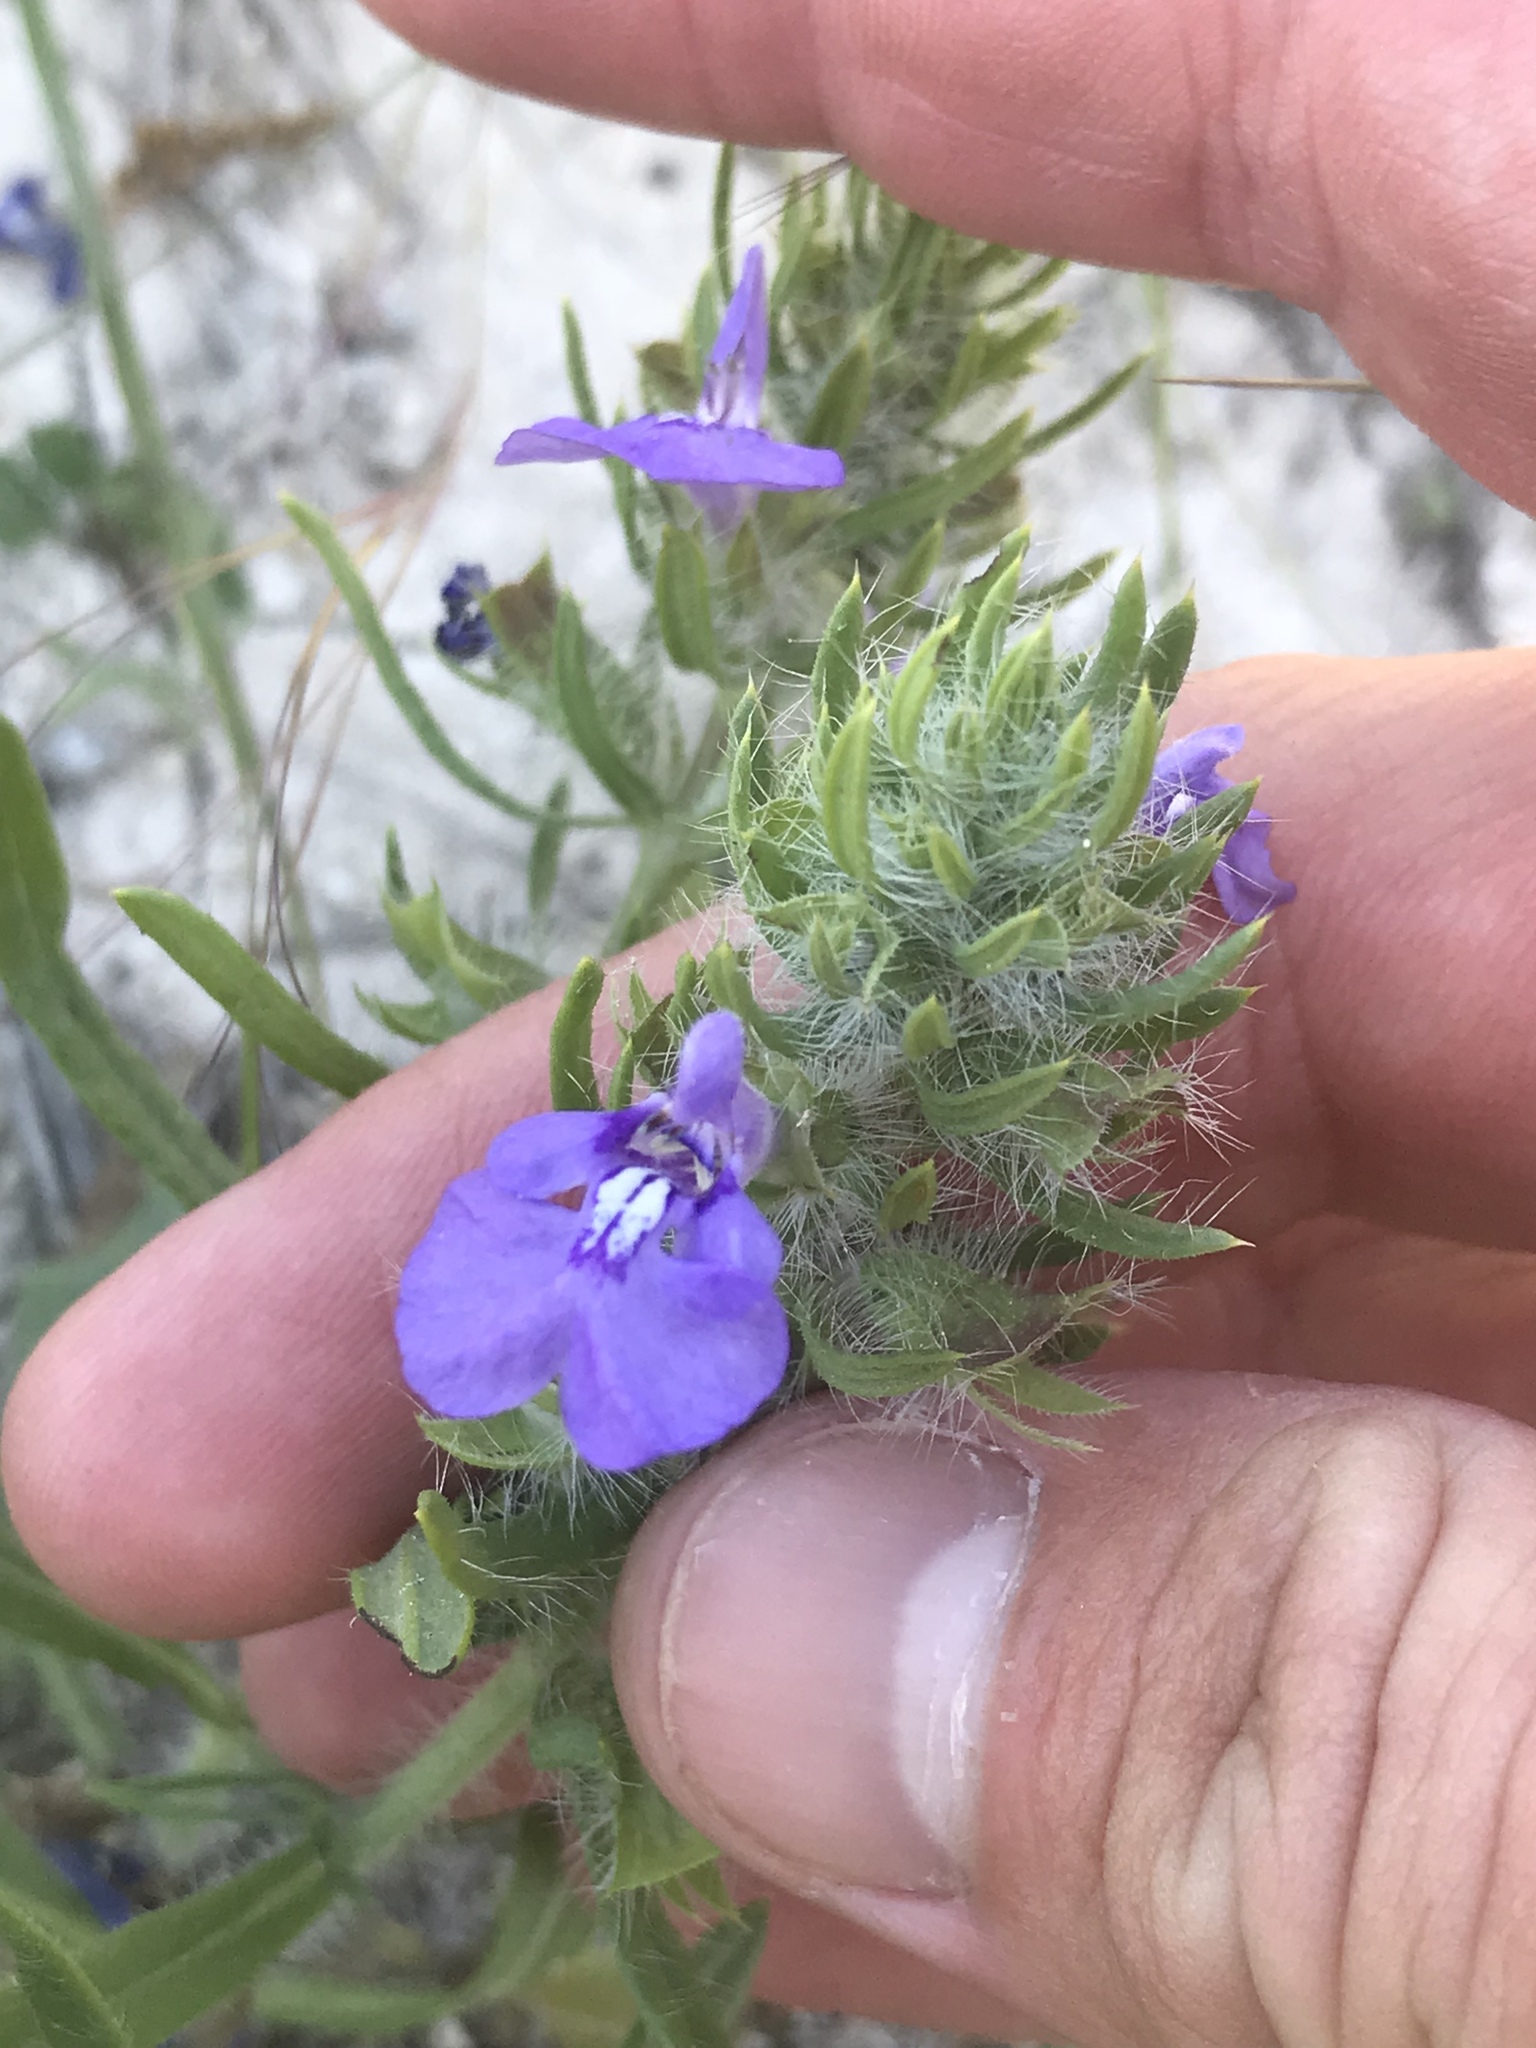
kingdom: Plantae
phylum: Tracheophyta
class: Magnoliopsida
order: Lamiales
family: Lamiaceae
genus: Salvia
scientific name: Salvia texana
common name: Texas sage
